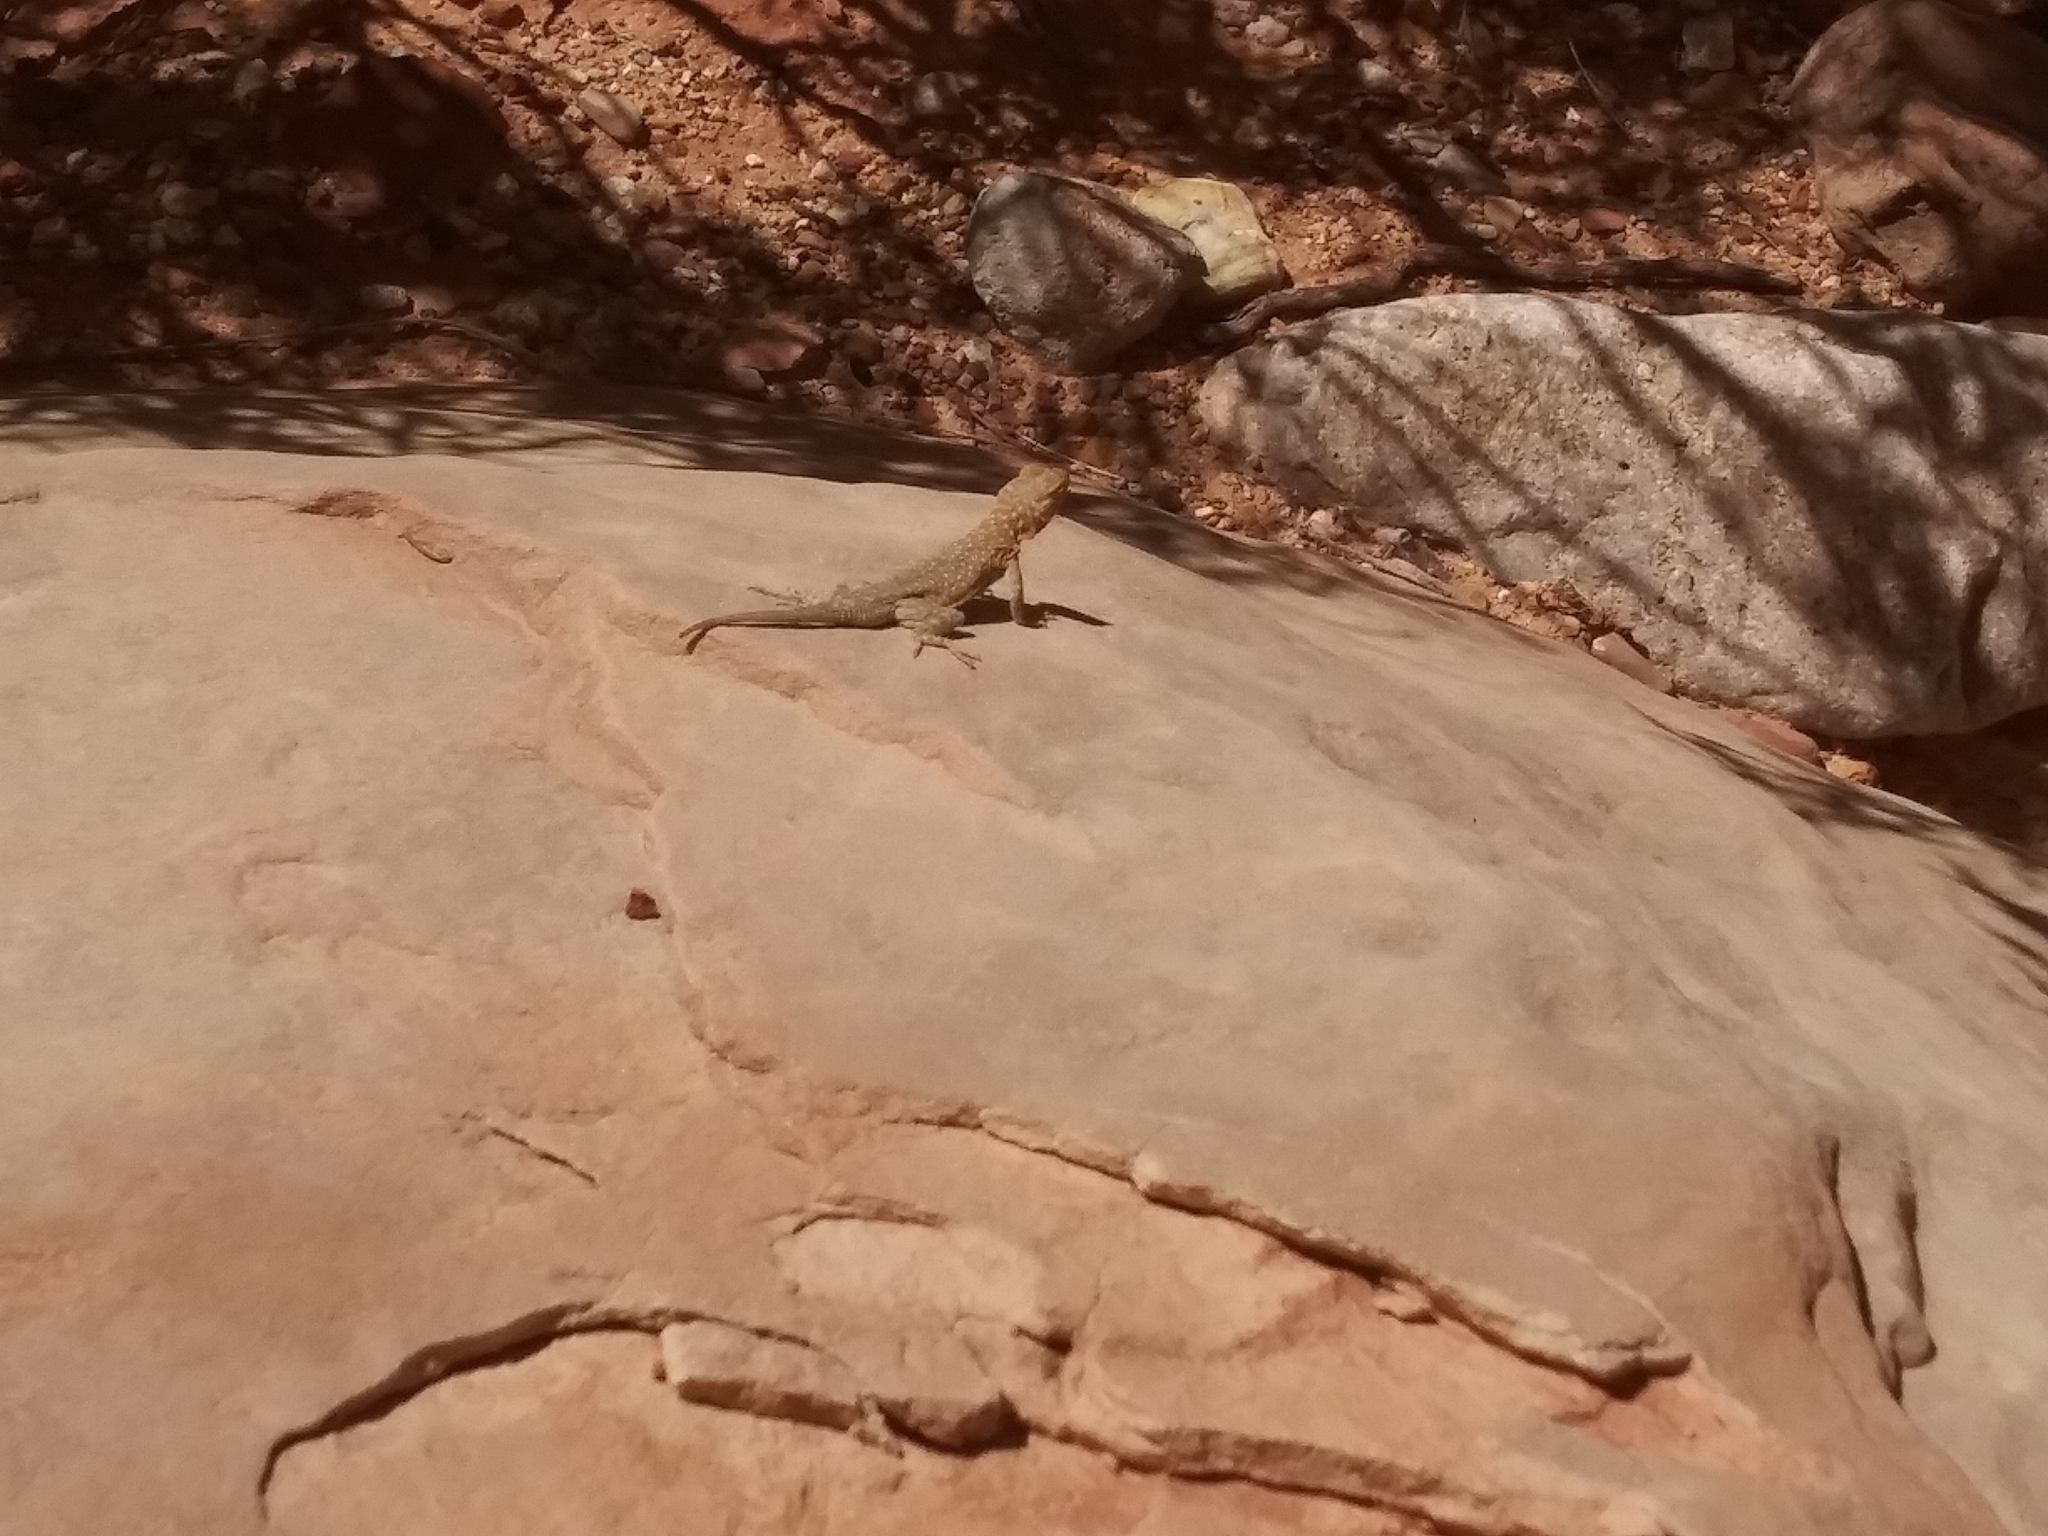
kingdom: Animalia
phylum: Chordata
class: Squamata
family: Phrynosomatidae
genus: Uta
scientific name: Uta stansburiana
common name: Side-blotched lizard
